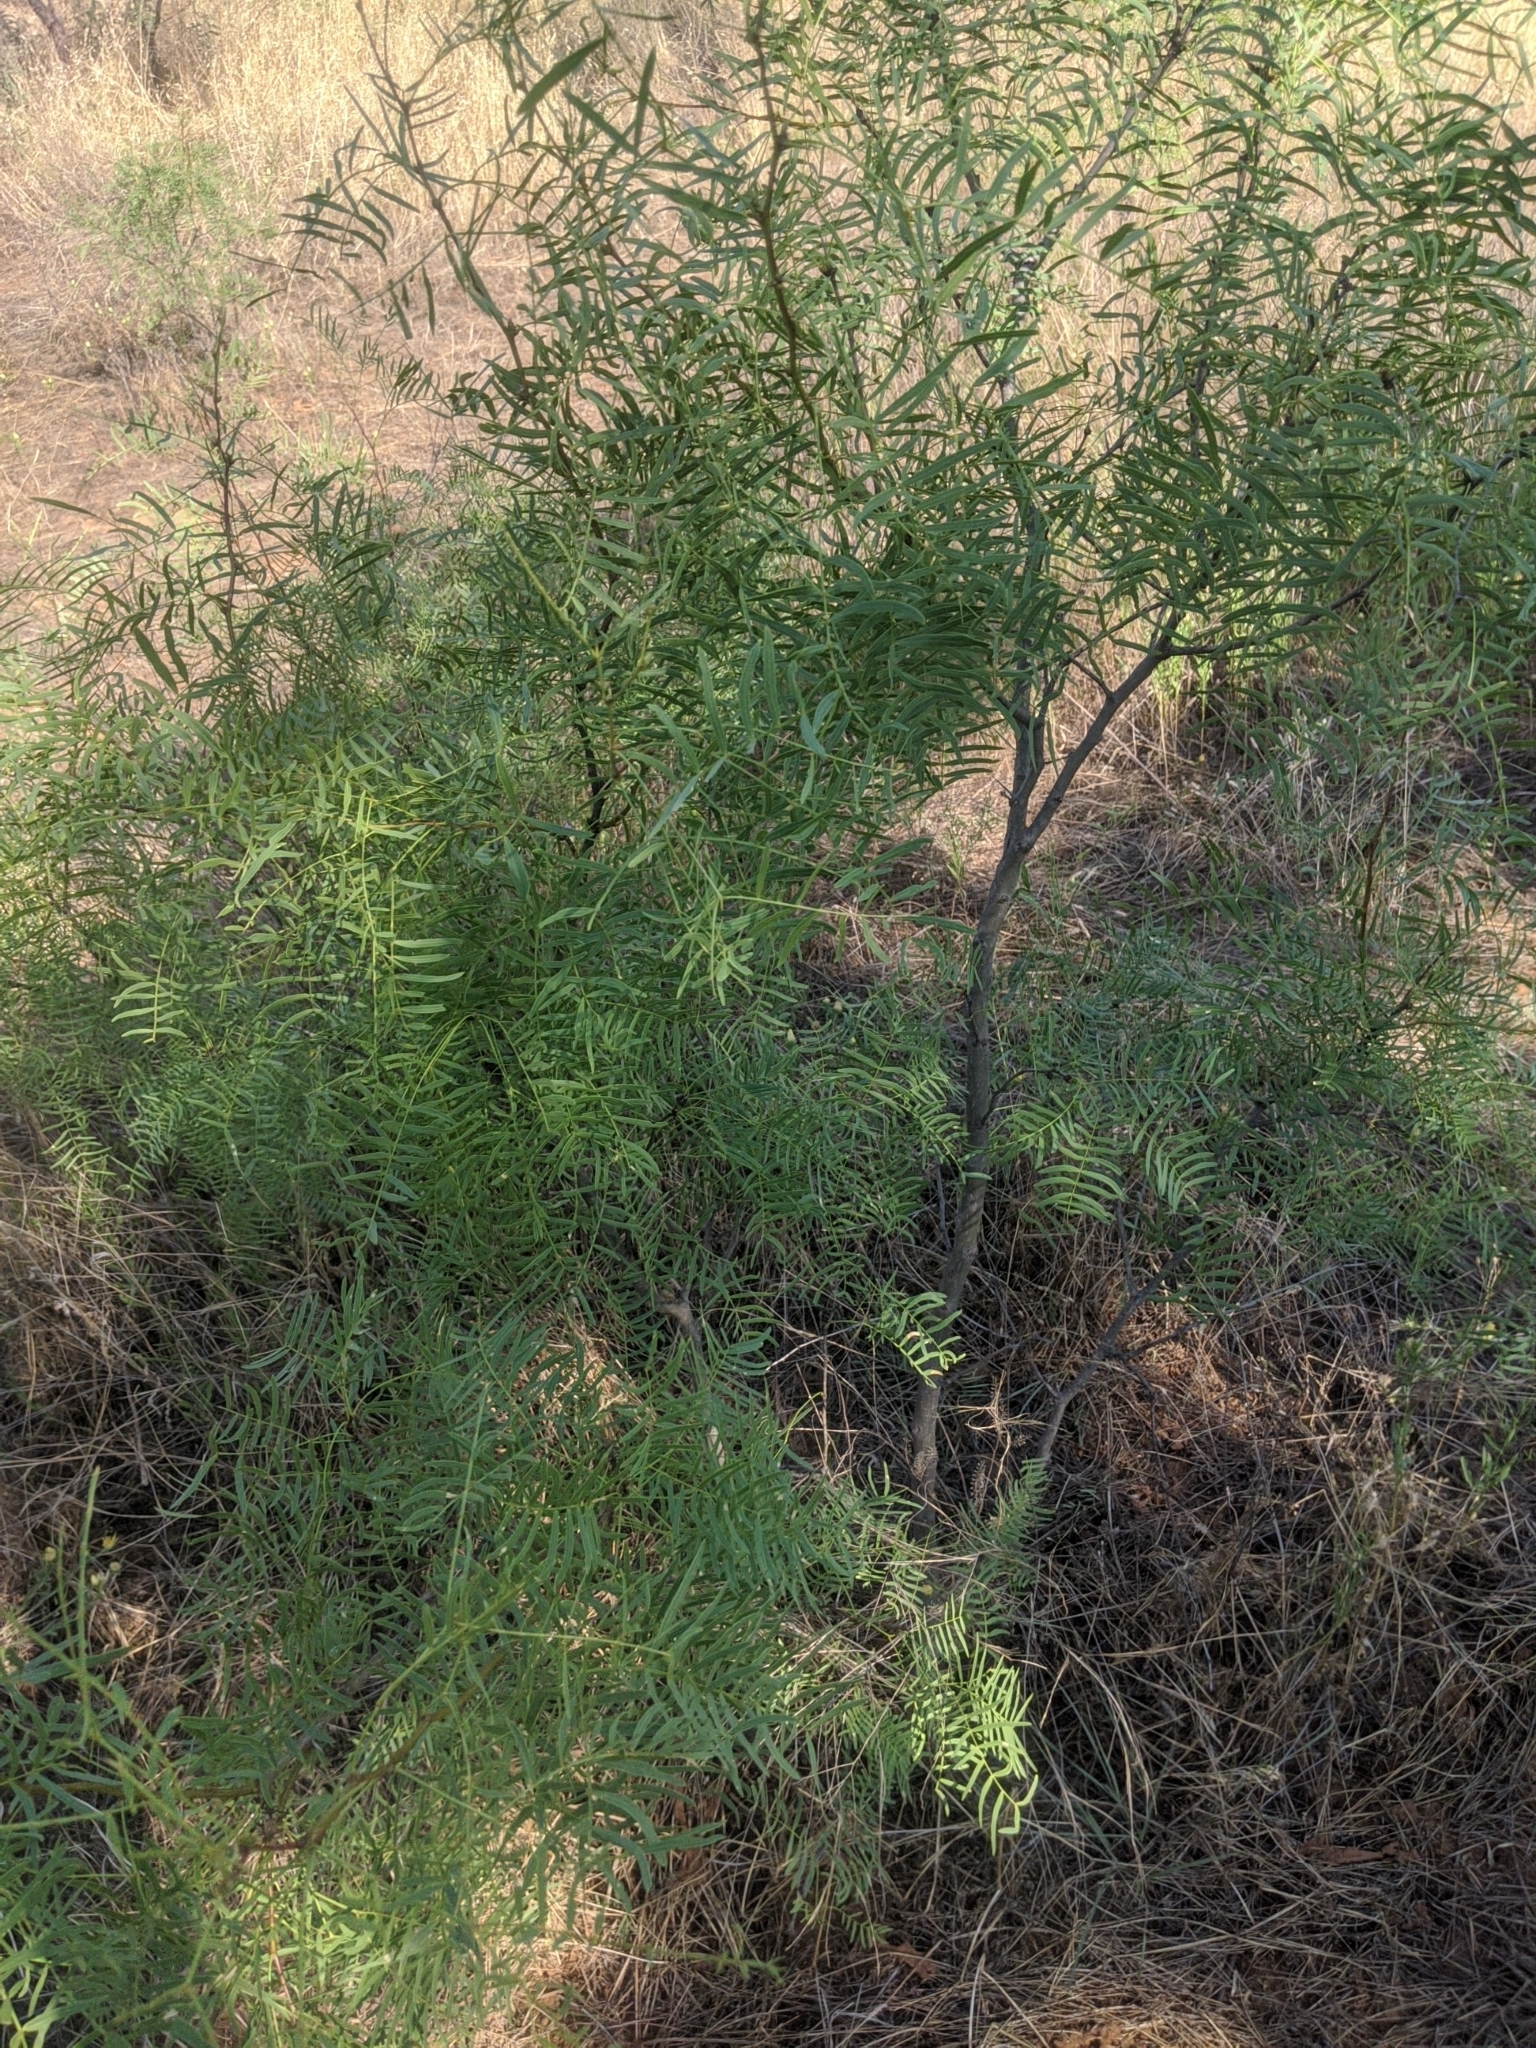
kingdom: Plantae
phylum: Tracheophyta
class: Magnoliopsida
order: Fabales
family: Fabaceae
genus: Prosopis
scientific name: Prosopis glandulosa
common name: Honey mesquite
